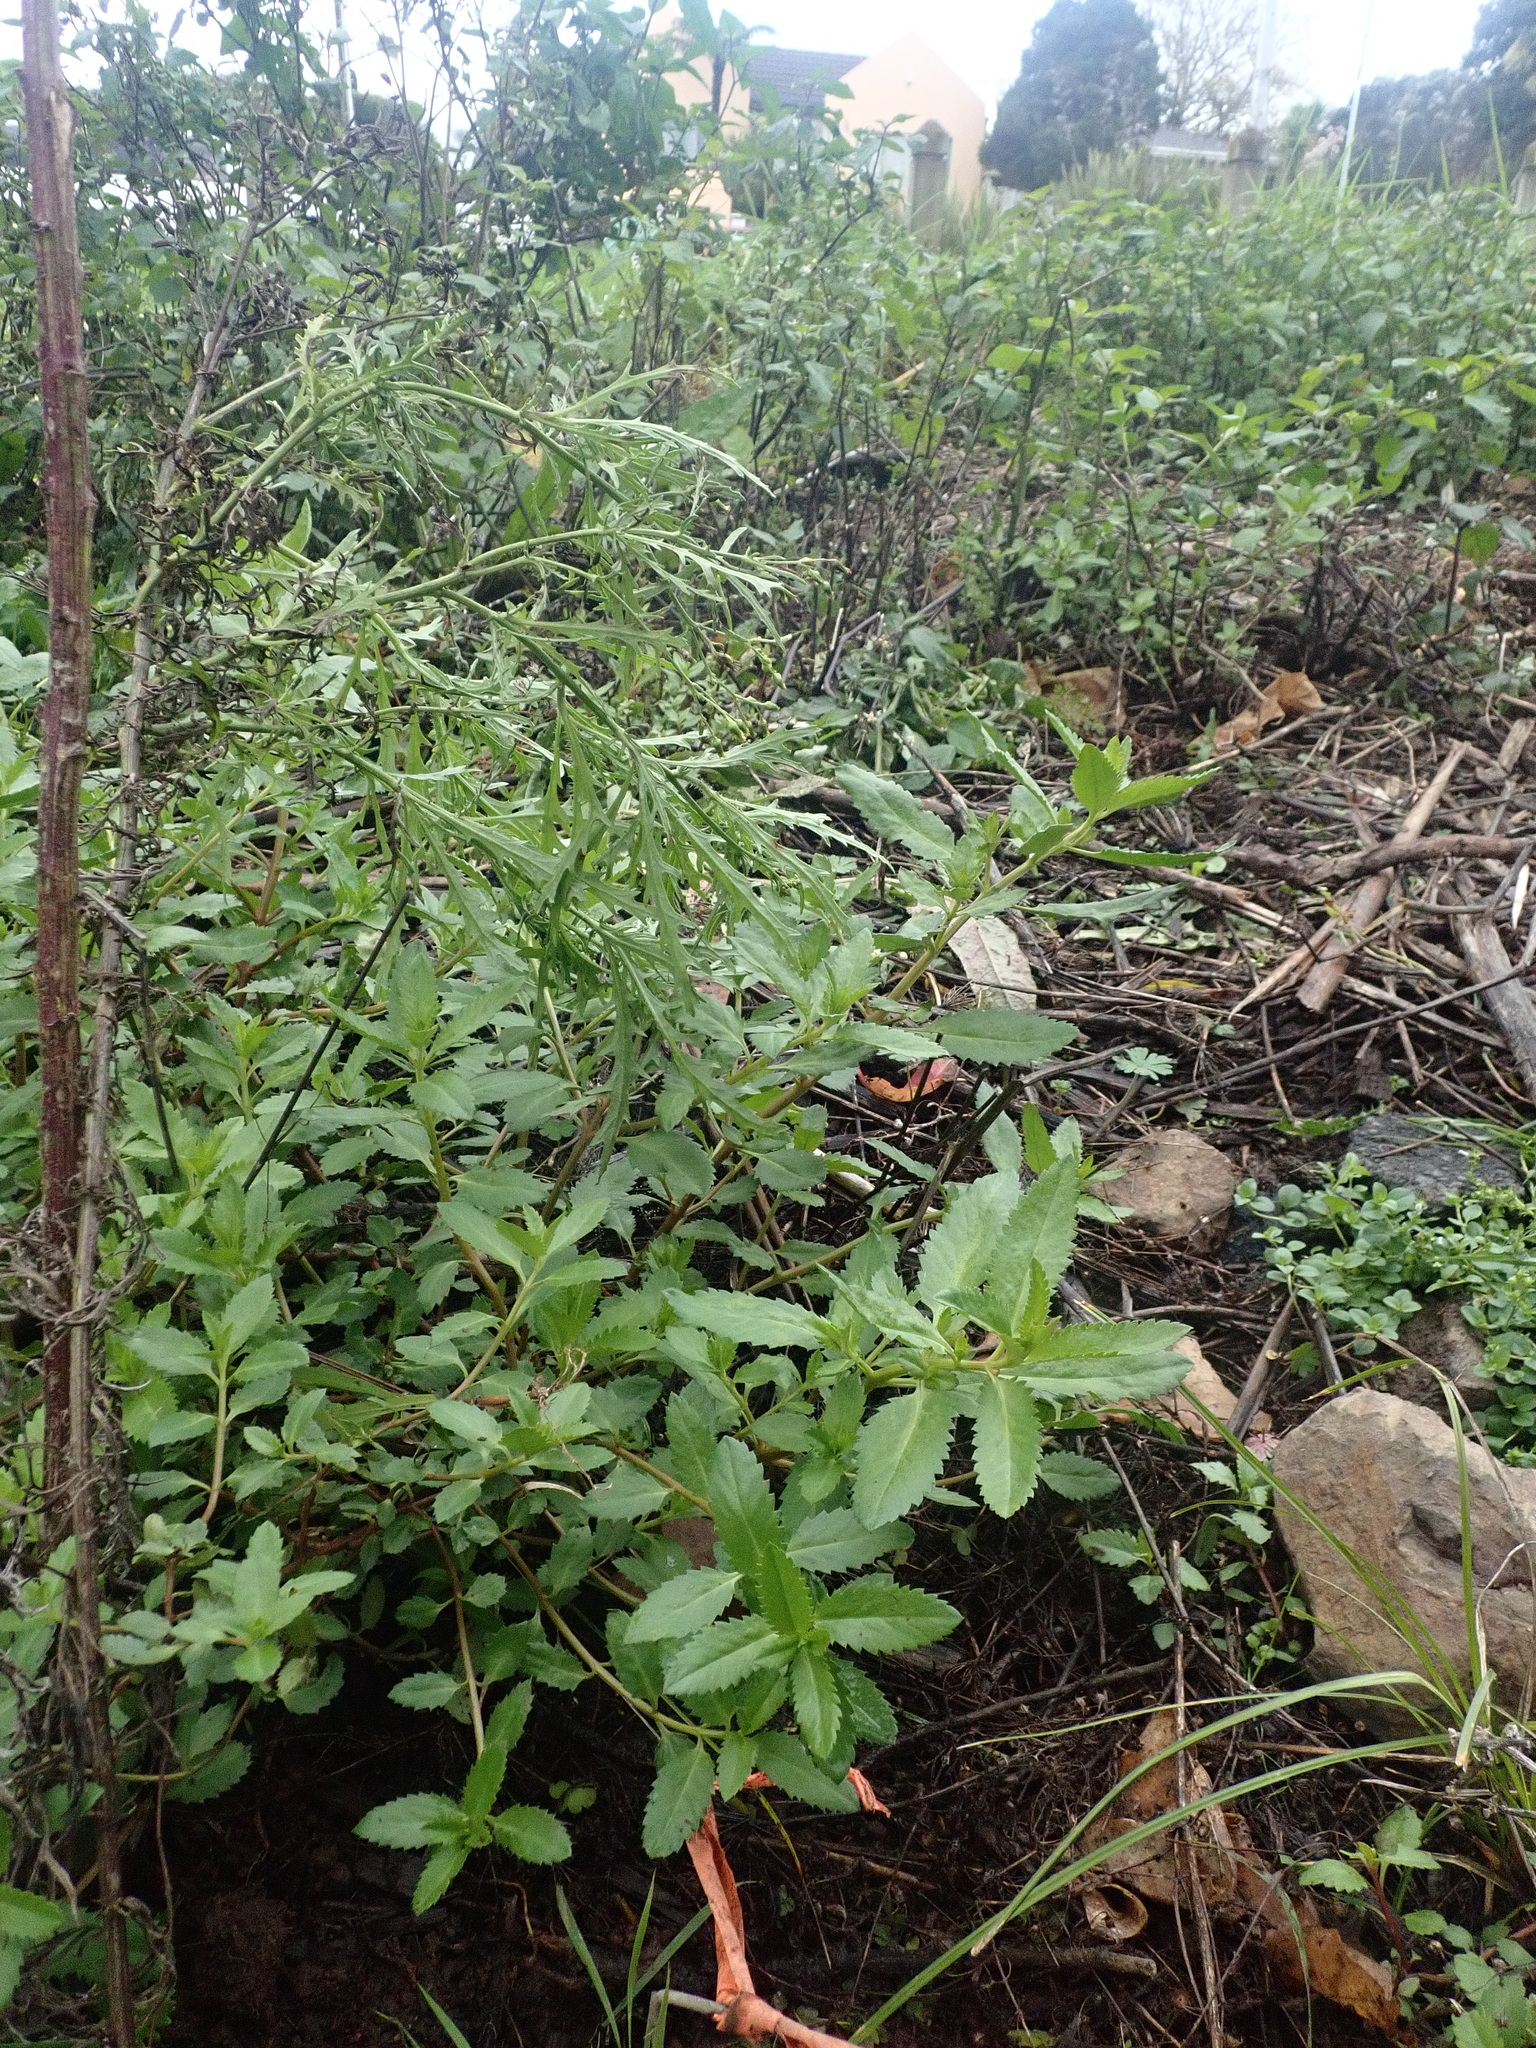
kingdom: Plantae
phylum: Tracheophyta
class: Magnoliopsida
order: Saxifragales
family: Haloragaceae
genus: Haloragis
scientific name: Haloragis erecta
